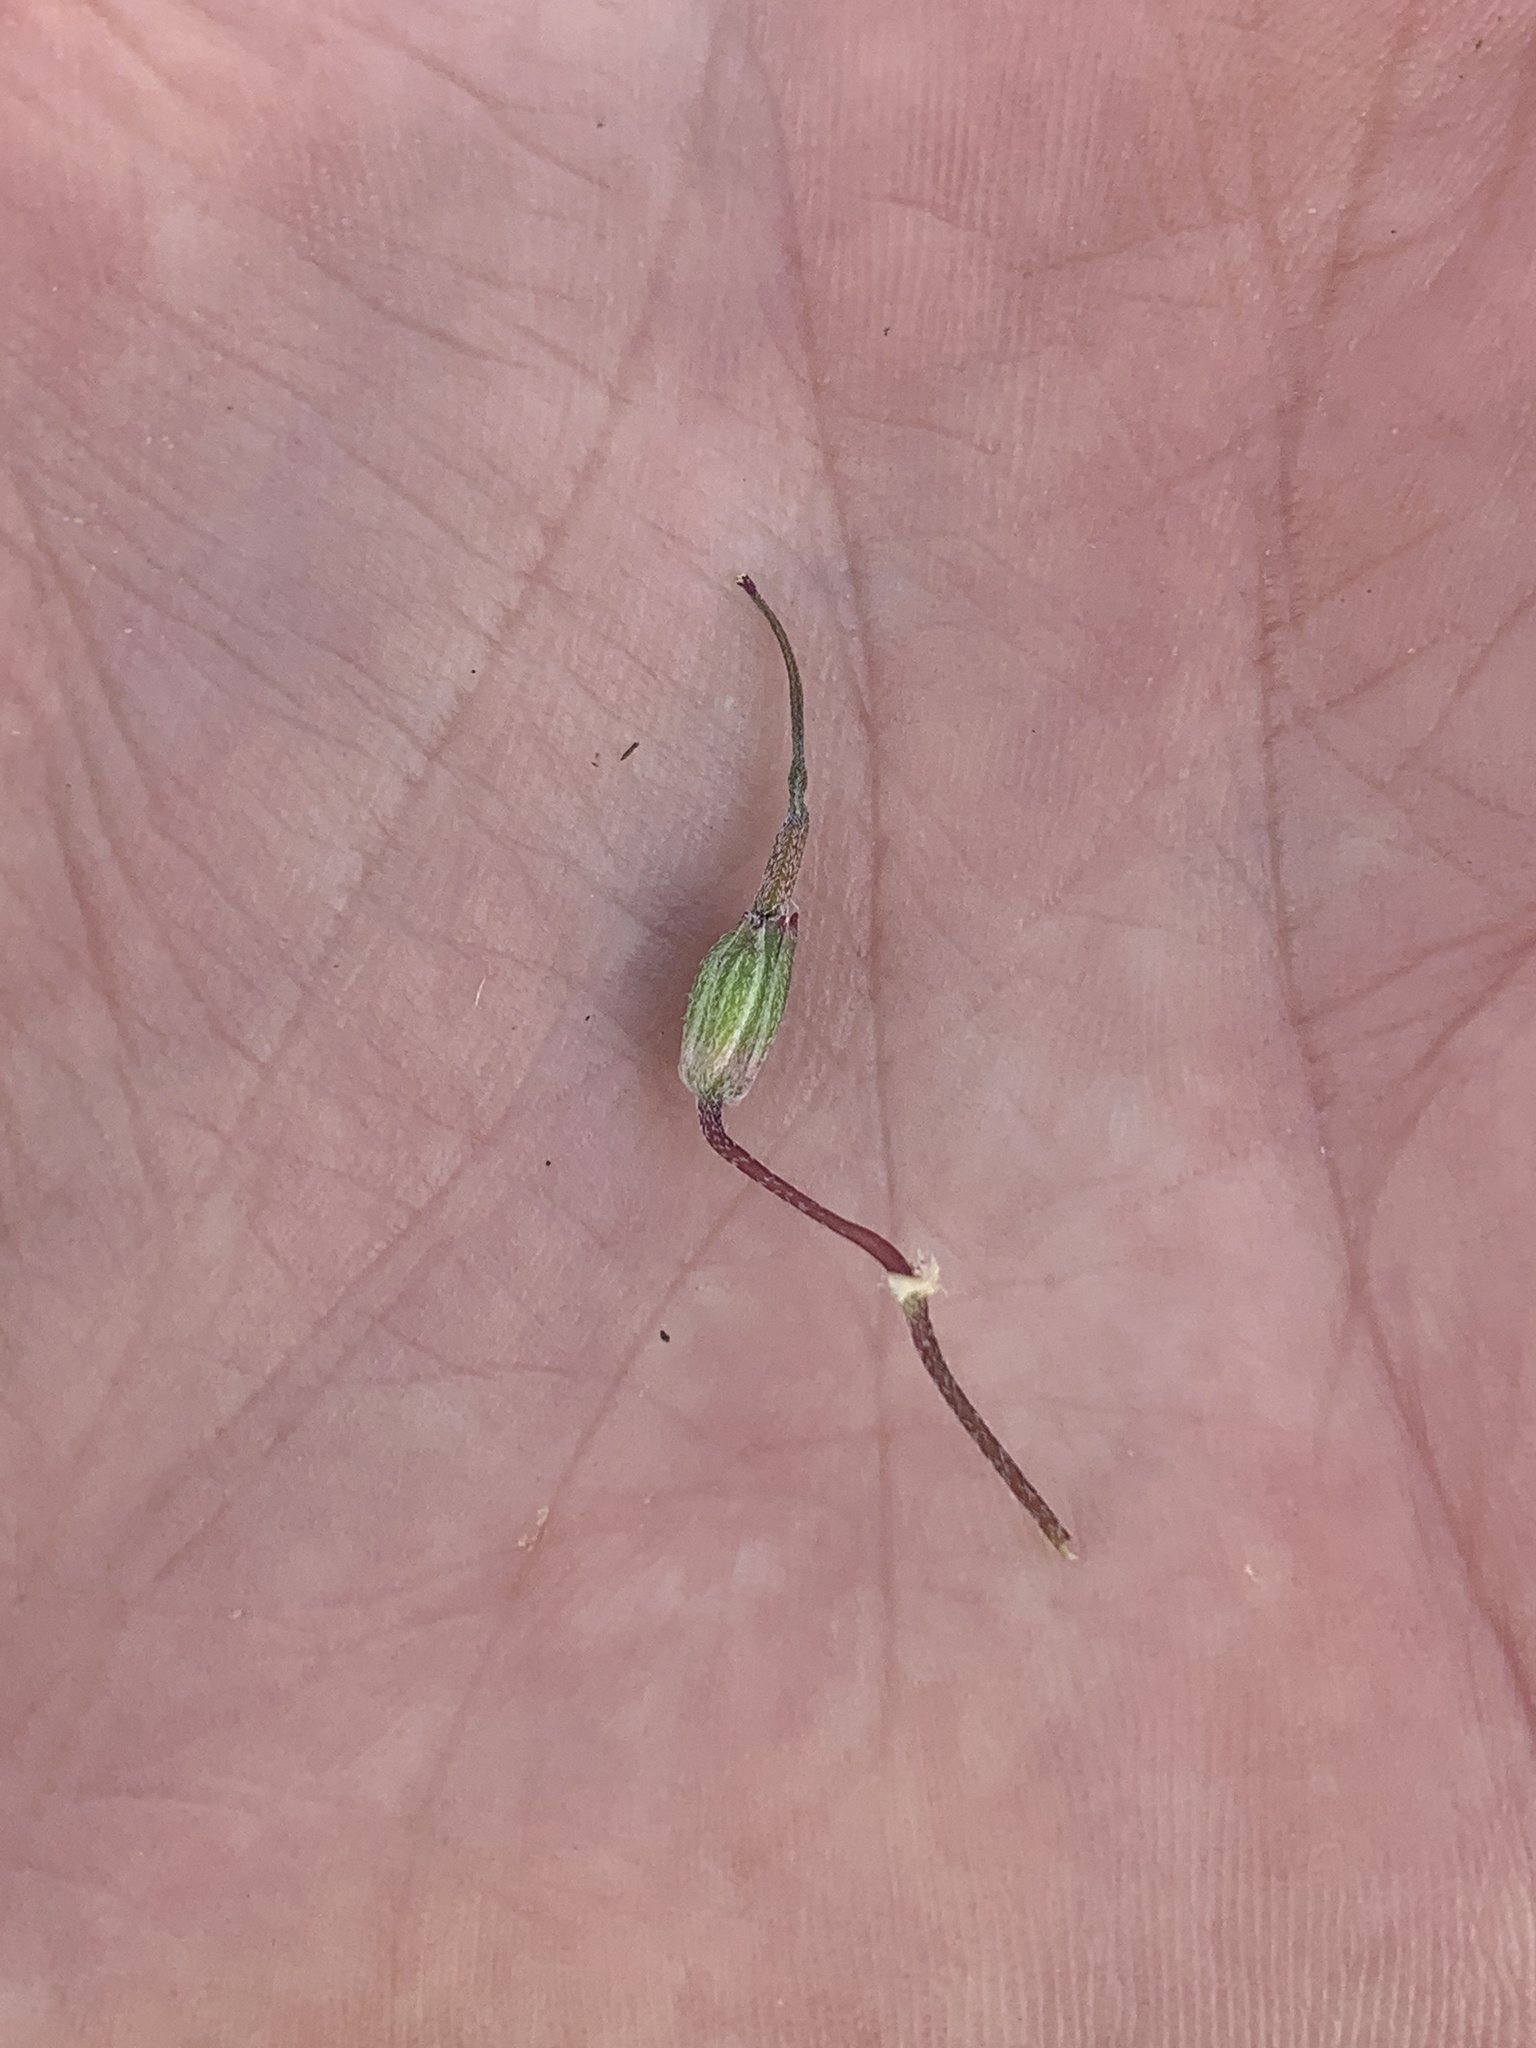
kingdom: Plantae
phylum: Tracheophyta
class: Magnoliopsida
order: Geraniales
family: Geraniaceae
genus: Erodium
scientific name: Erodium cicutarium
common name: Common stork's-bill
